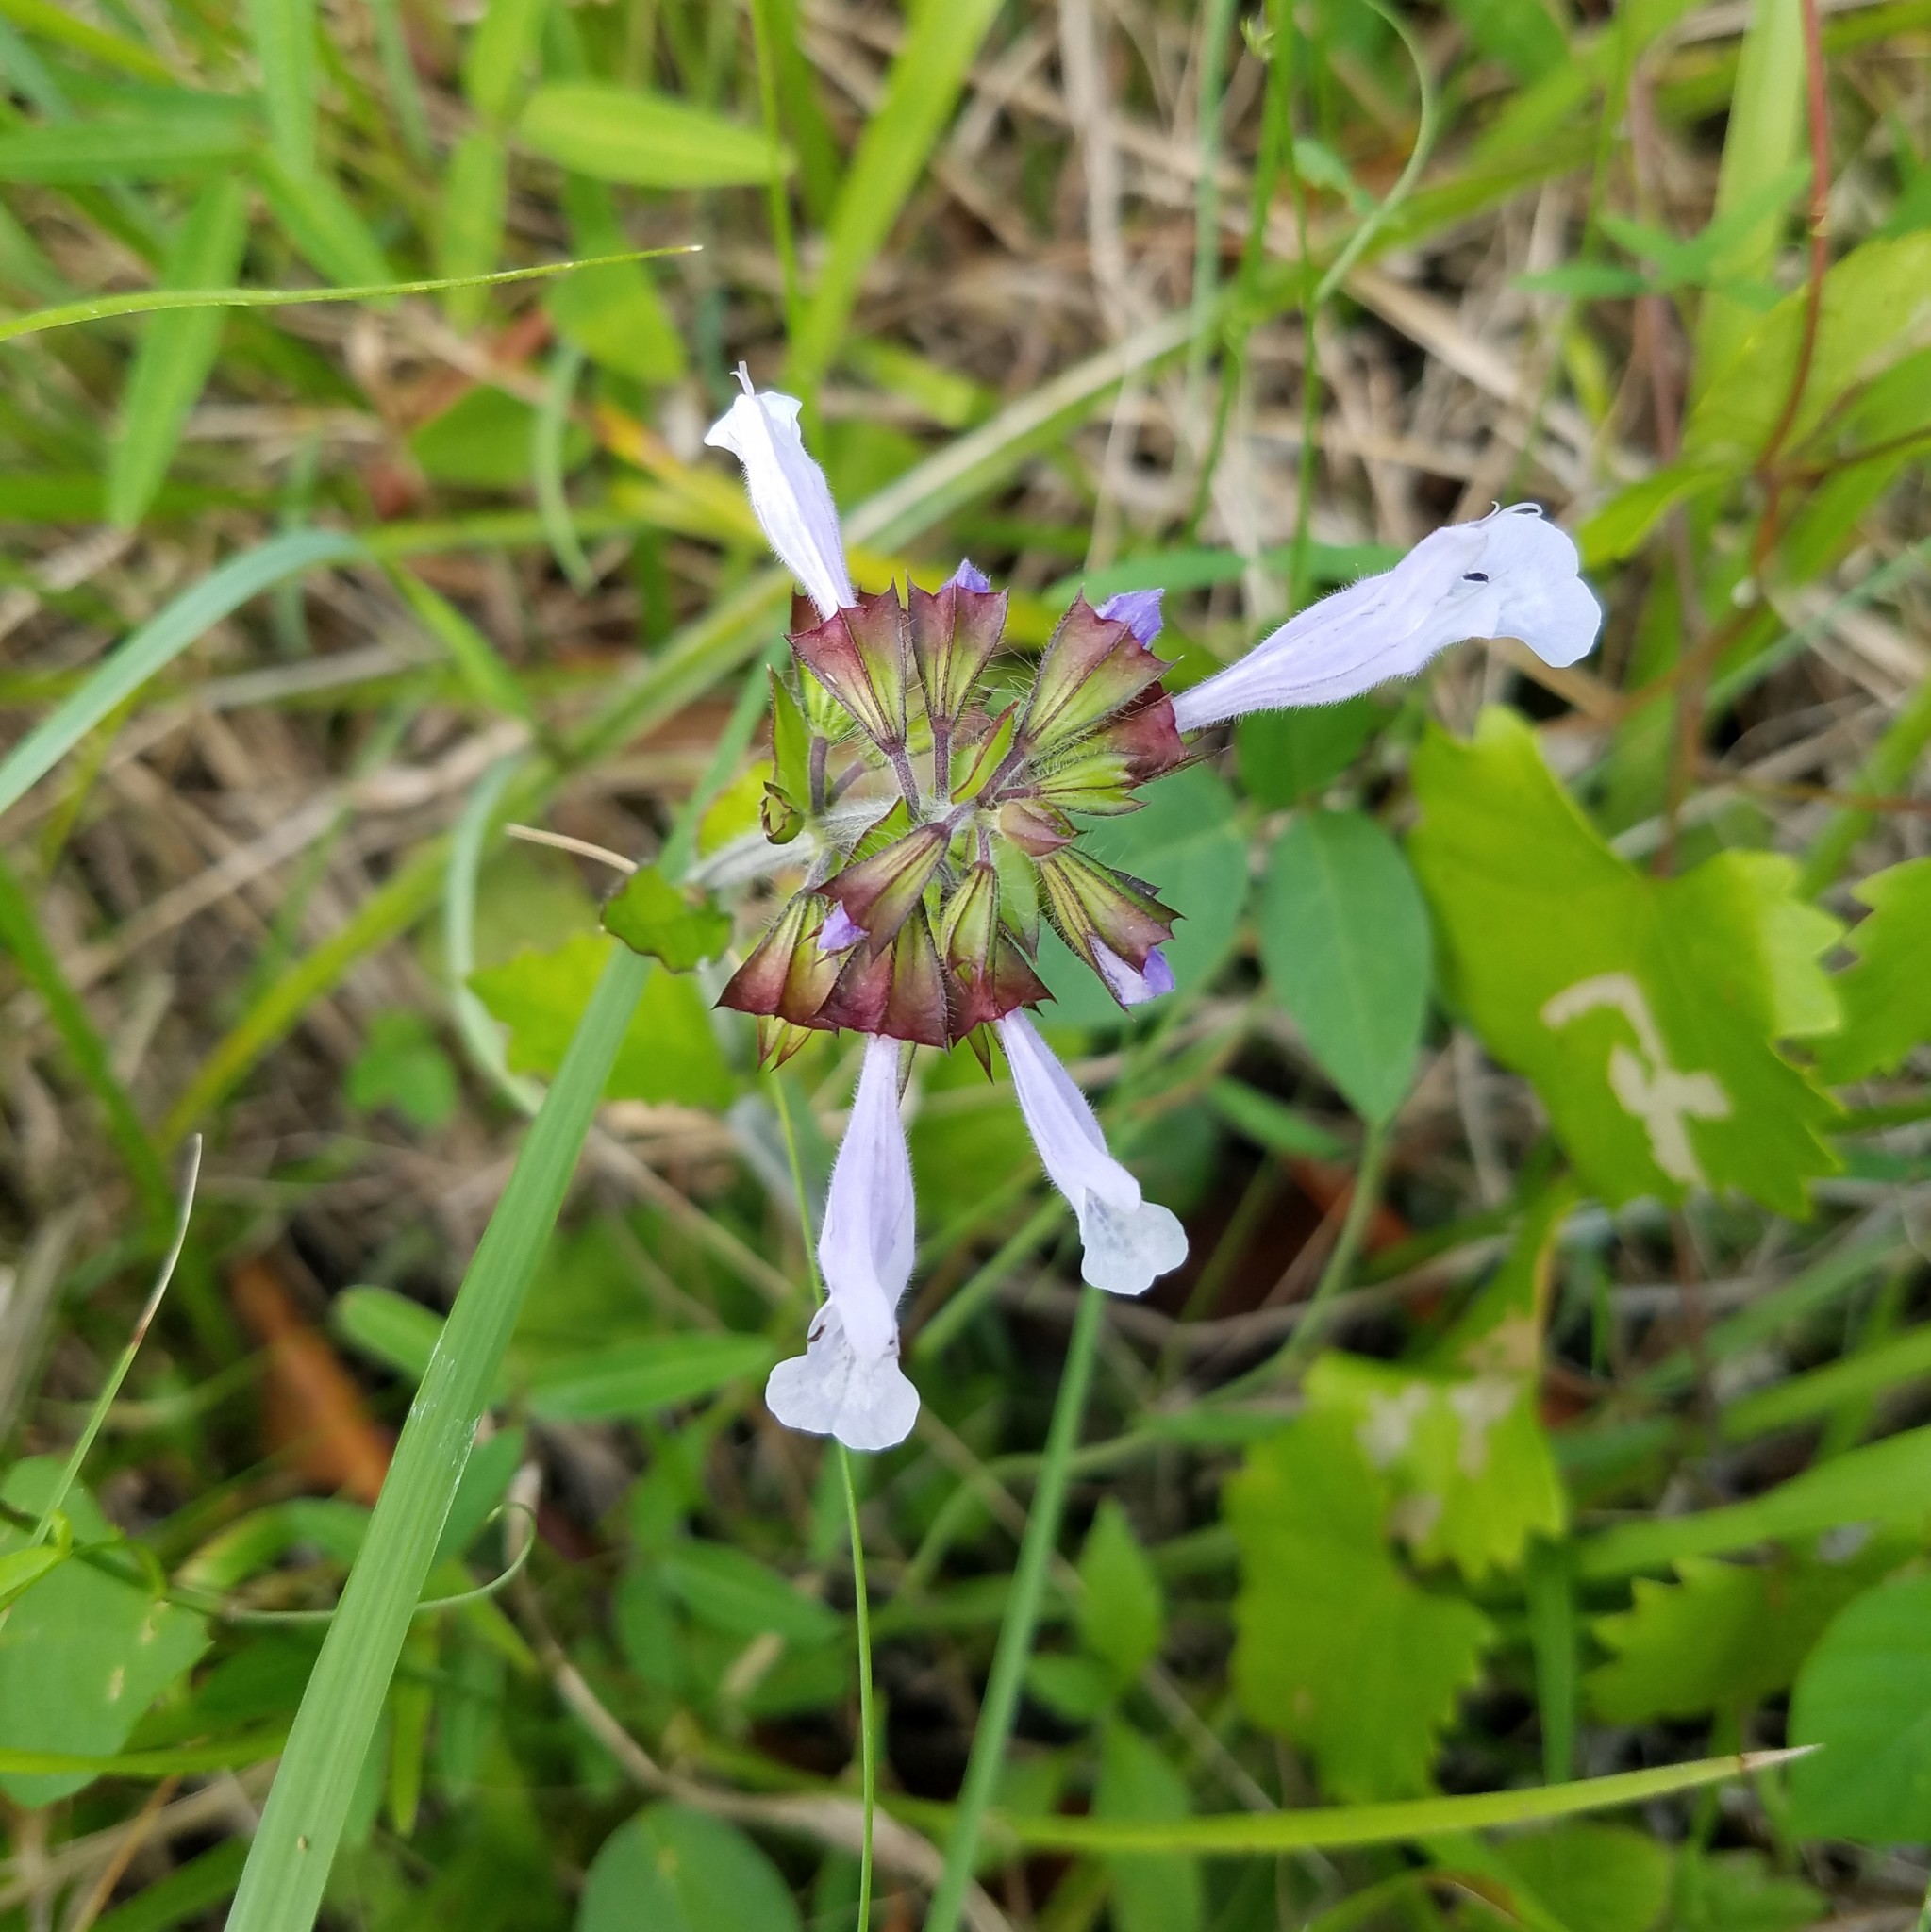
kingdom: Plantae
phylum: Tracheophyta
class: Magnoliopsida
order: Lamiales
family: Lamiaceae
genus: Salvia
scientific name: Salvia lyrata
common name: Cancerweed
